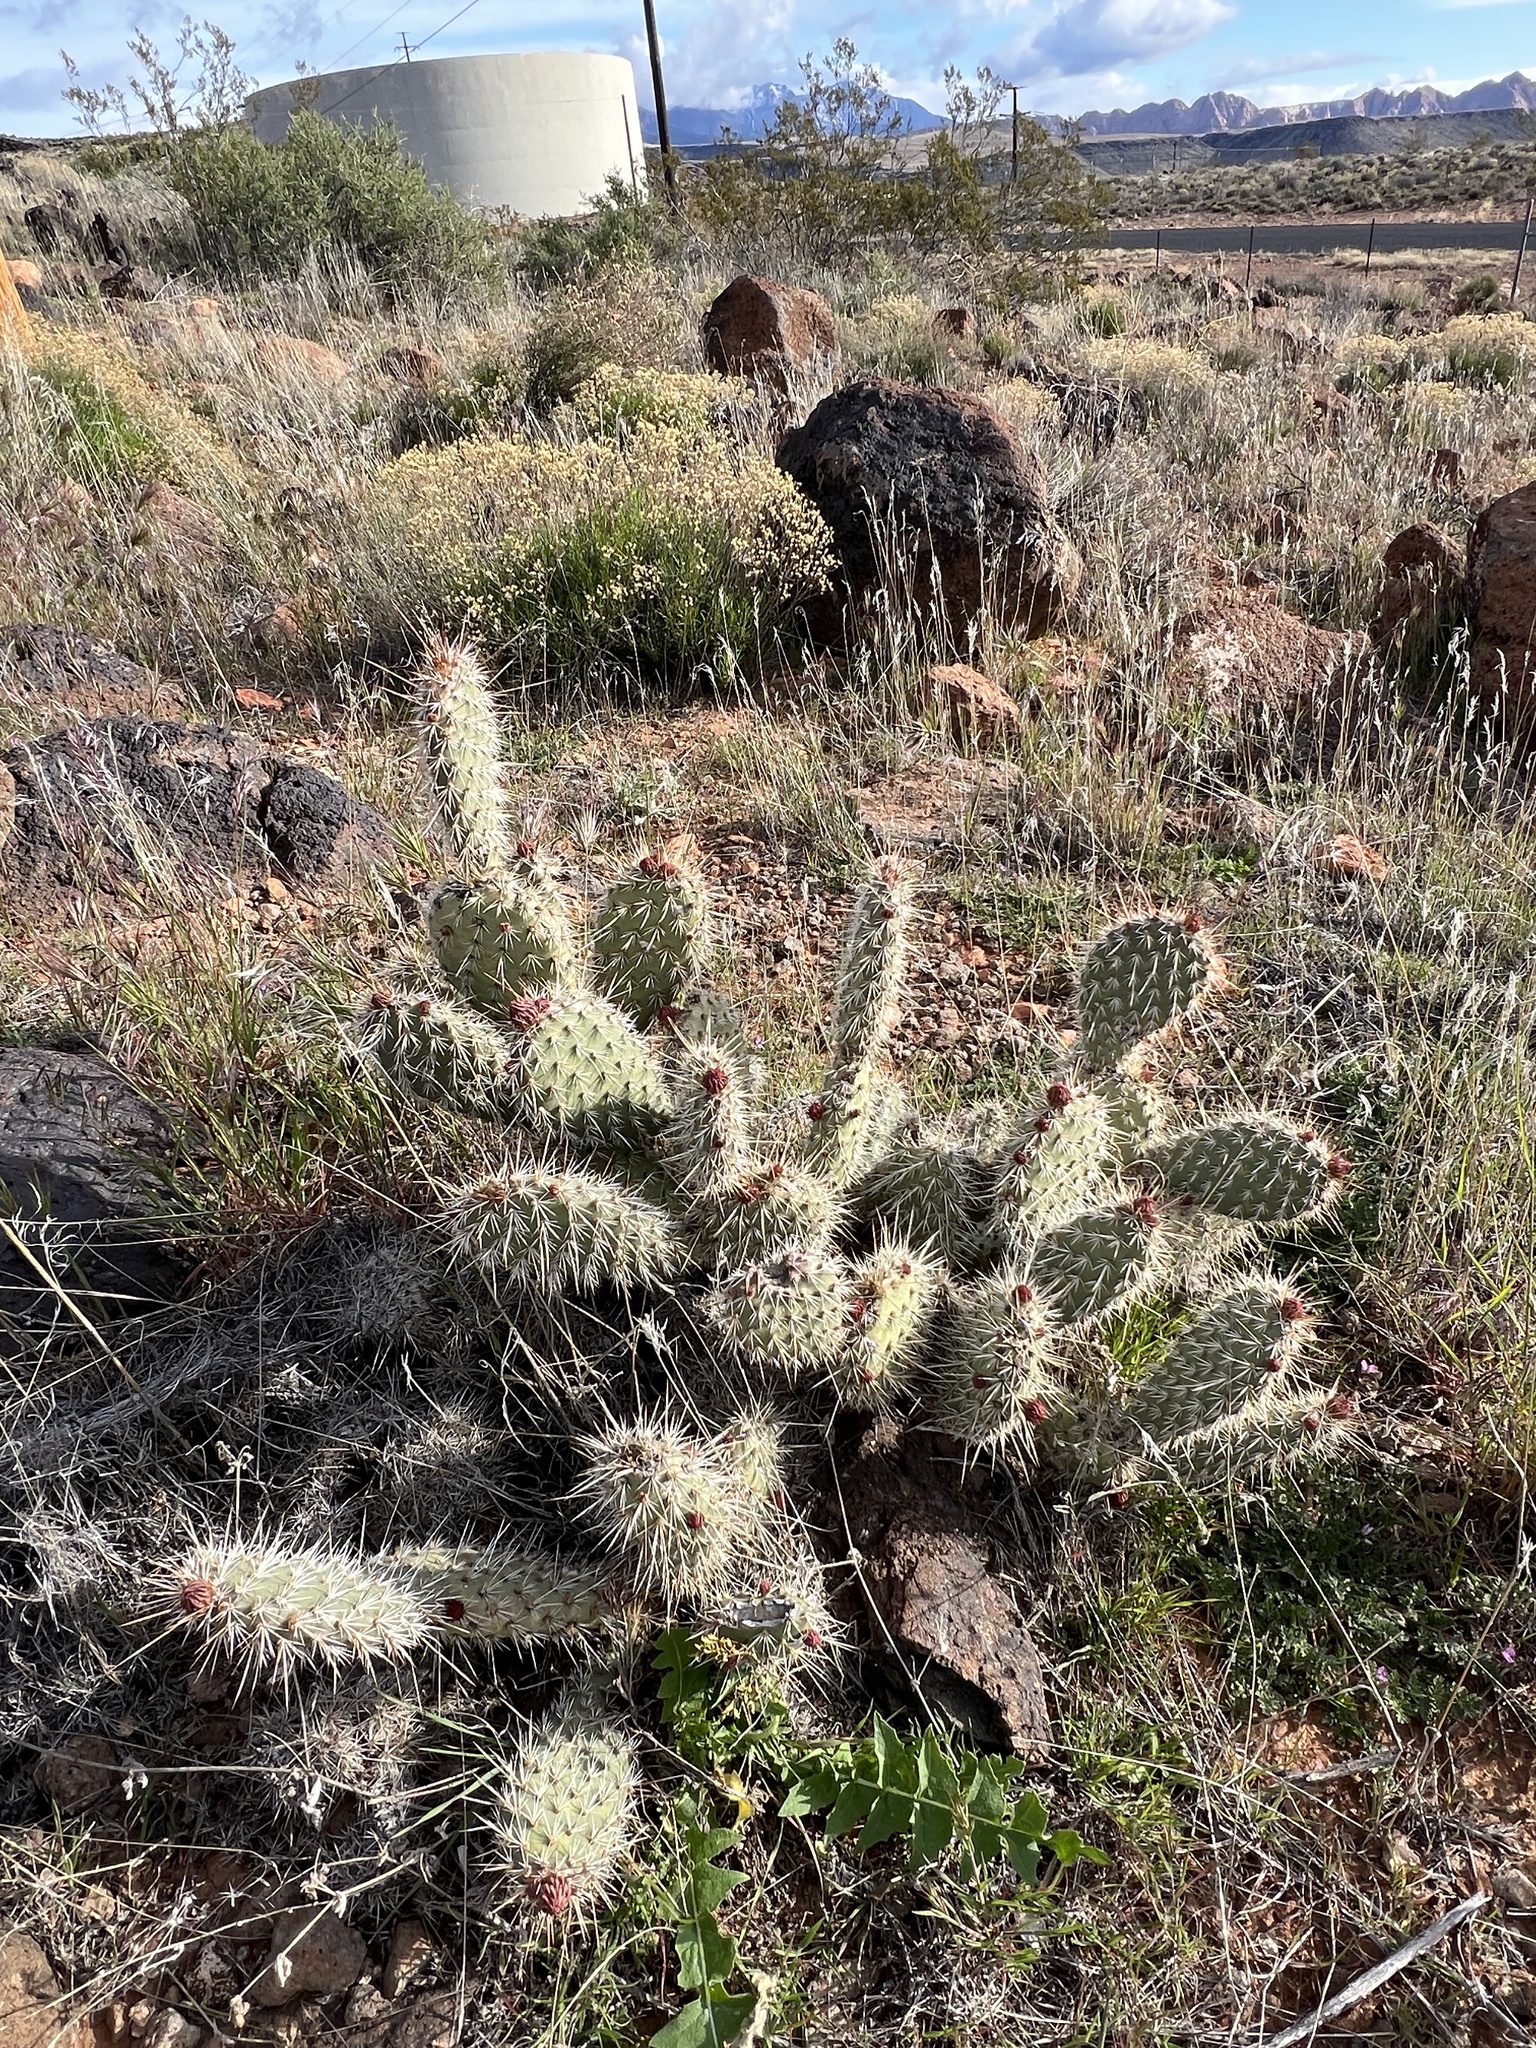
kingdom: Plantae
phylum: Tracheophyta
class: Magnoliopsida
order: Caryophyllales
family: Cactaceae
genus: Opuntia
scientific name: Opuntia polyacantha
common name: Plains prickly-pear
